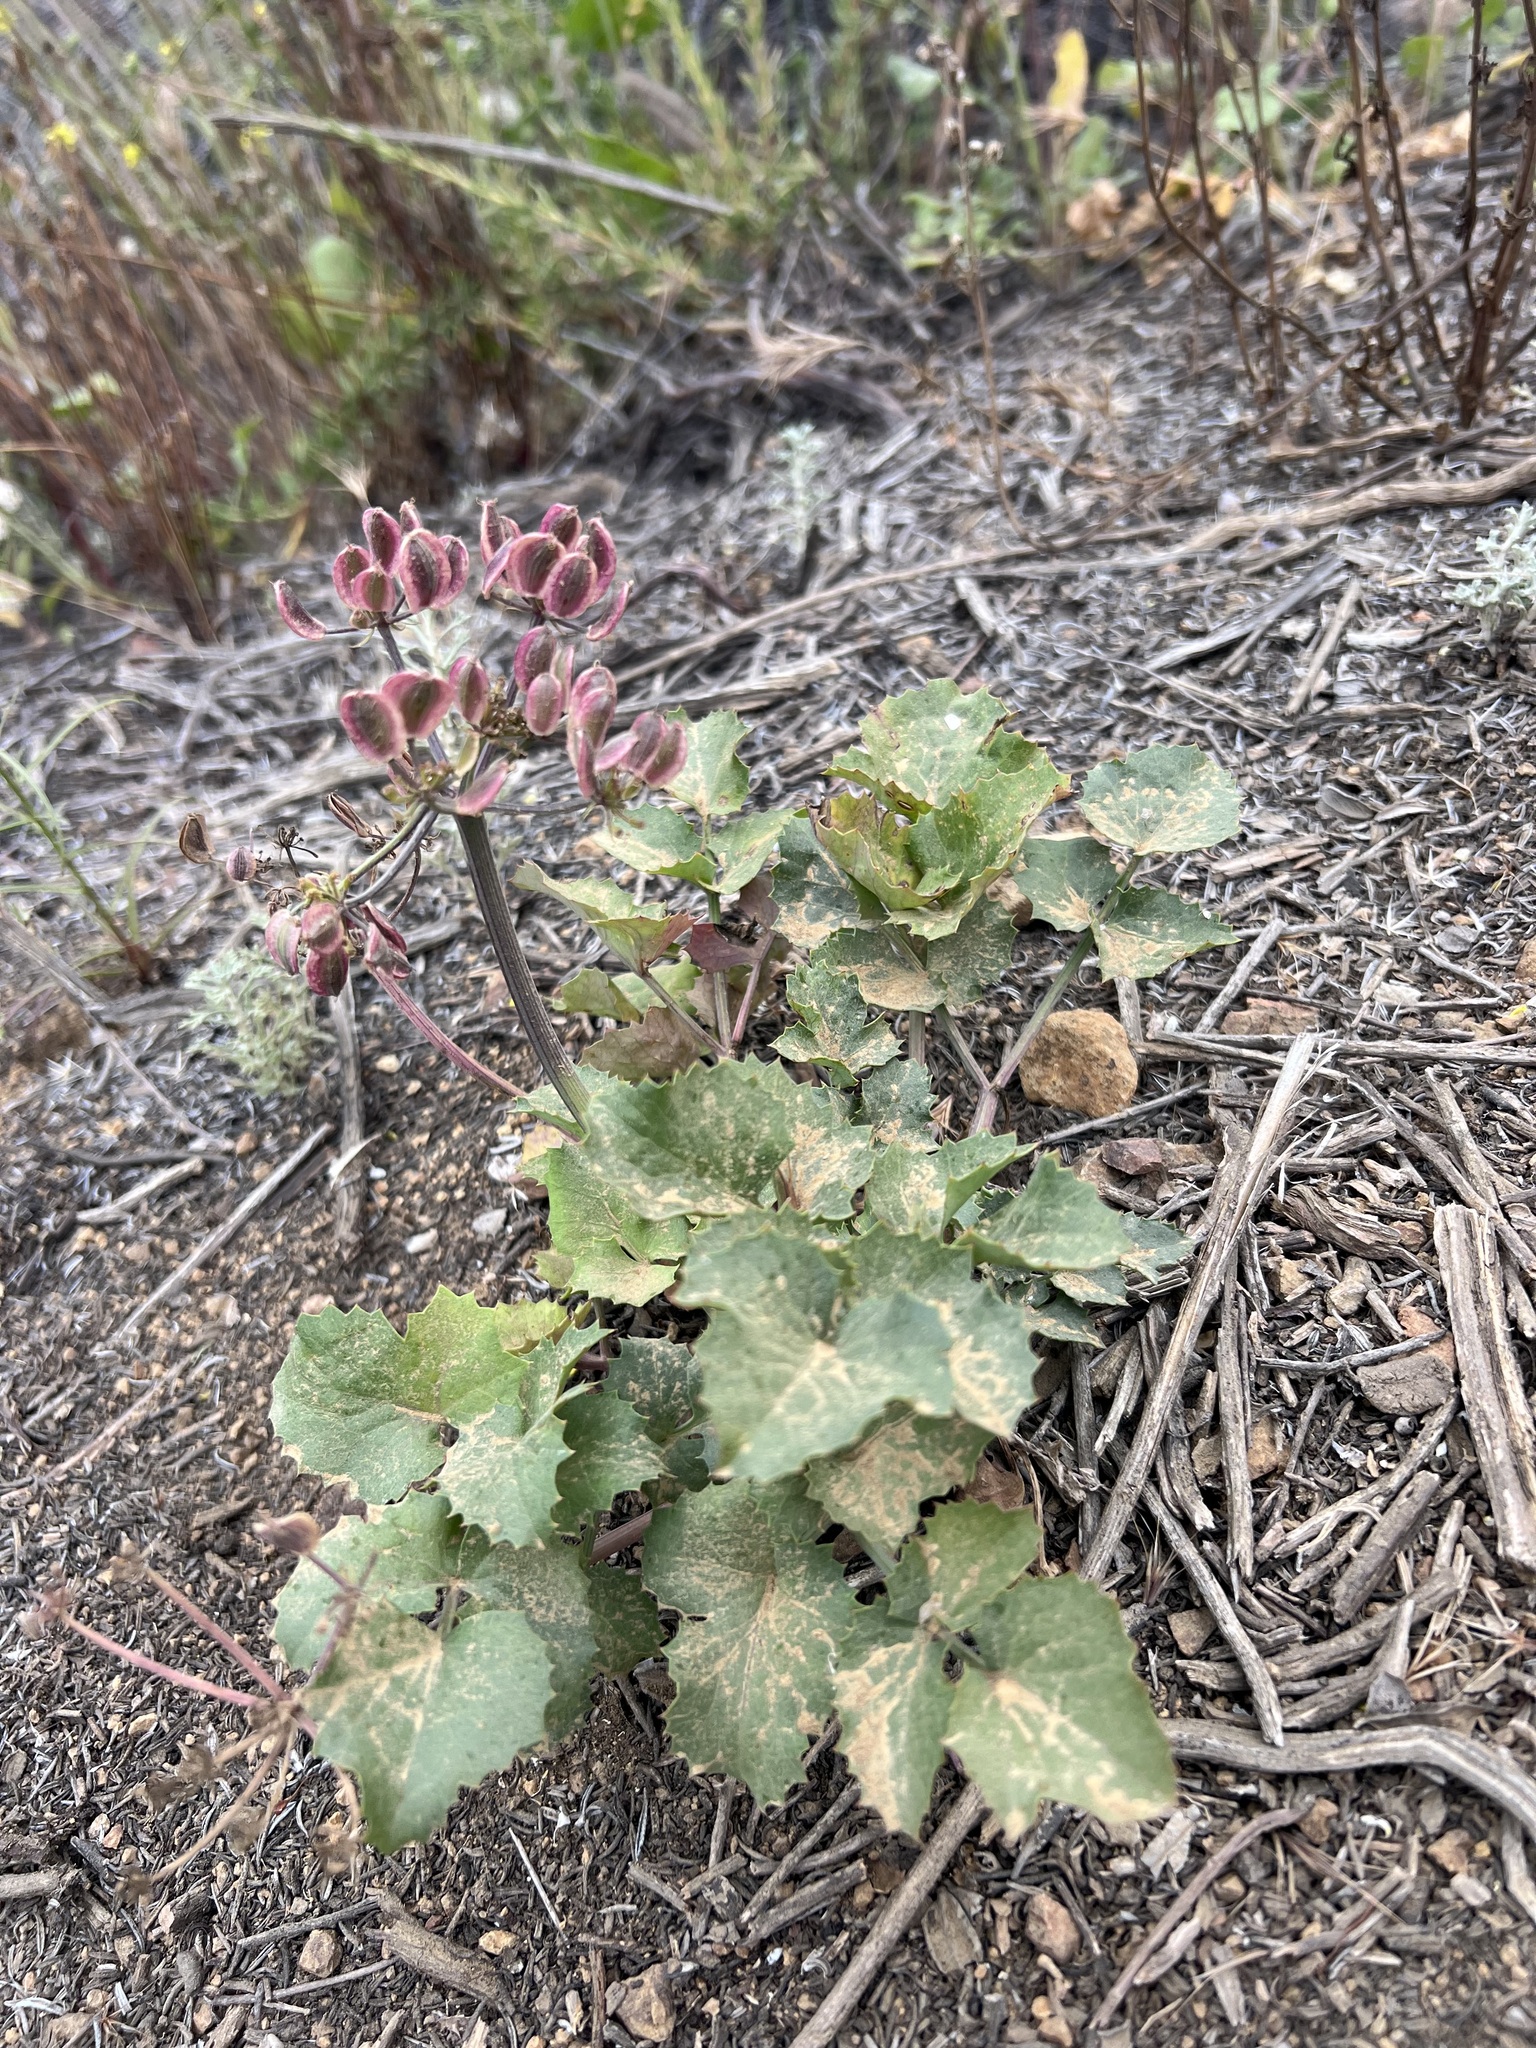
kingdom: Plantae
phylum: Tracheophyta
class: Magnoliopsida
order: Apiales
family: Apiaceae
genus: Lomatium
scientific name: Lomatium lucidum
